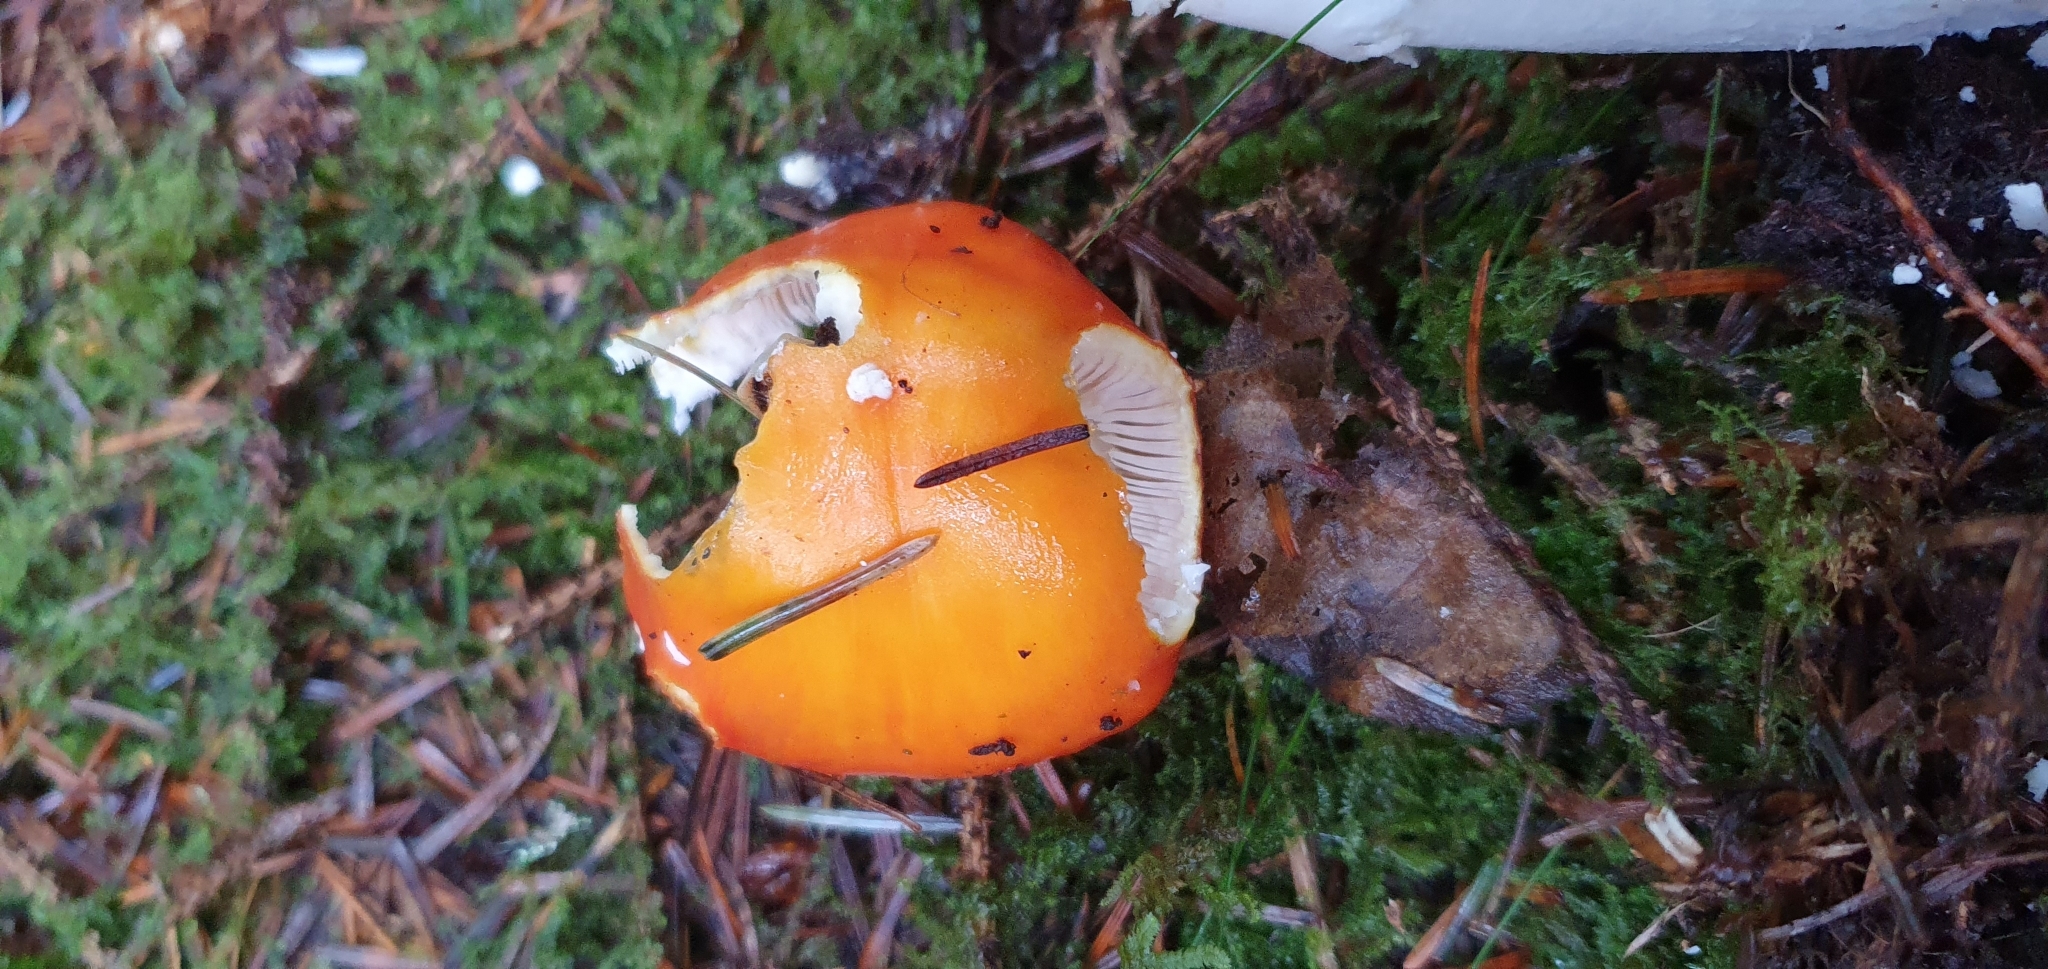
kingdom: Fungi
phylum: Basidiomycota
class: Agaricomycetes
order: Agaricales
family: Amanitaceae
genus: Amanita
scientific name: Amanita muscaria
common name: Fly agaric
